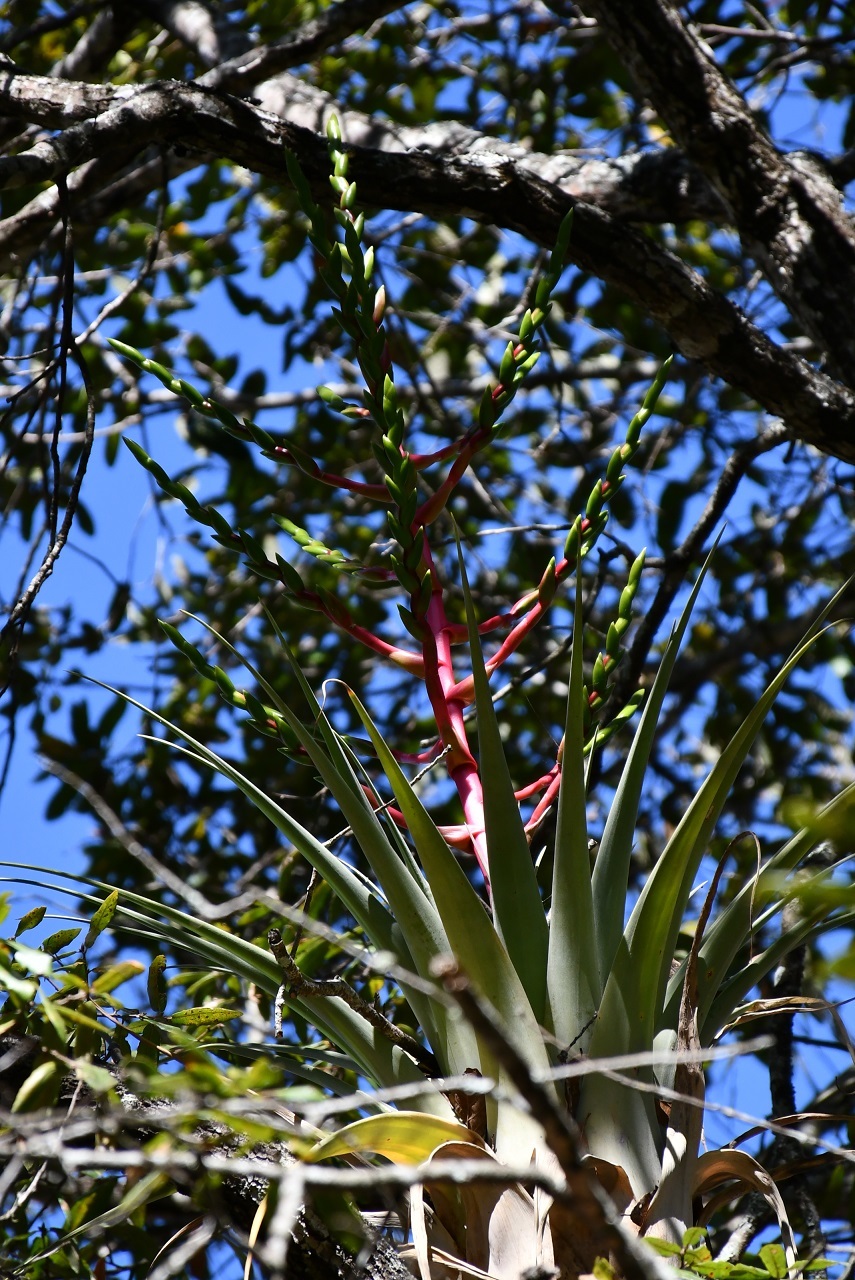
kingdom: Plantae
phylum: Tracheophyta
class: Liliopsida
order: Poales
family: Bromeliaceae
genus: Tillandsia
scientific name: Tillandsia comitanensis
